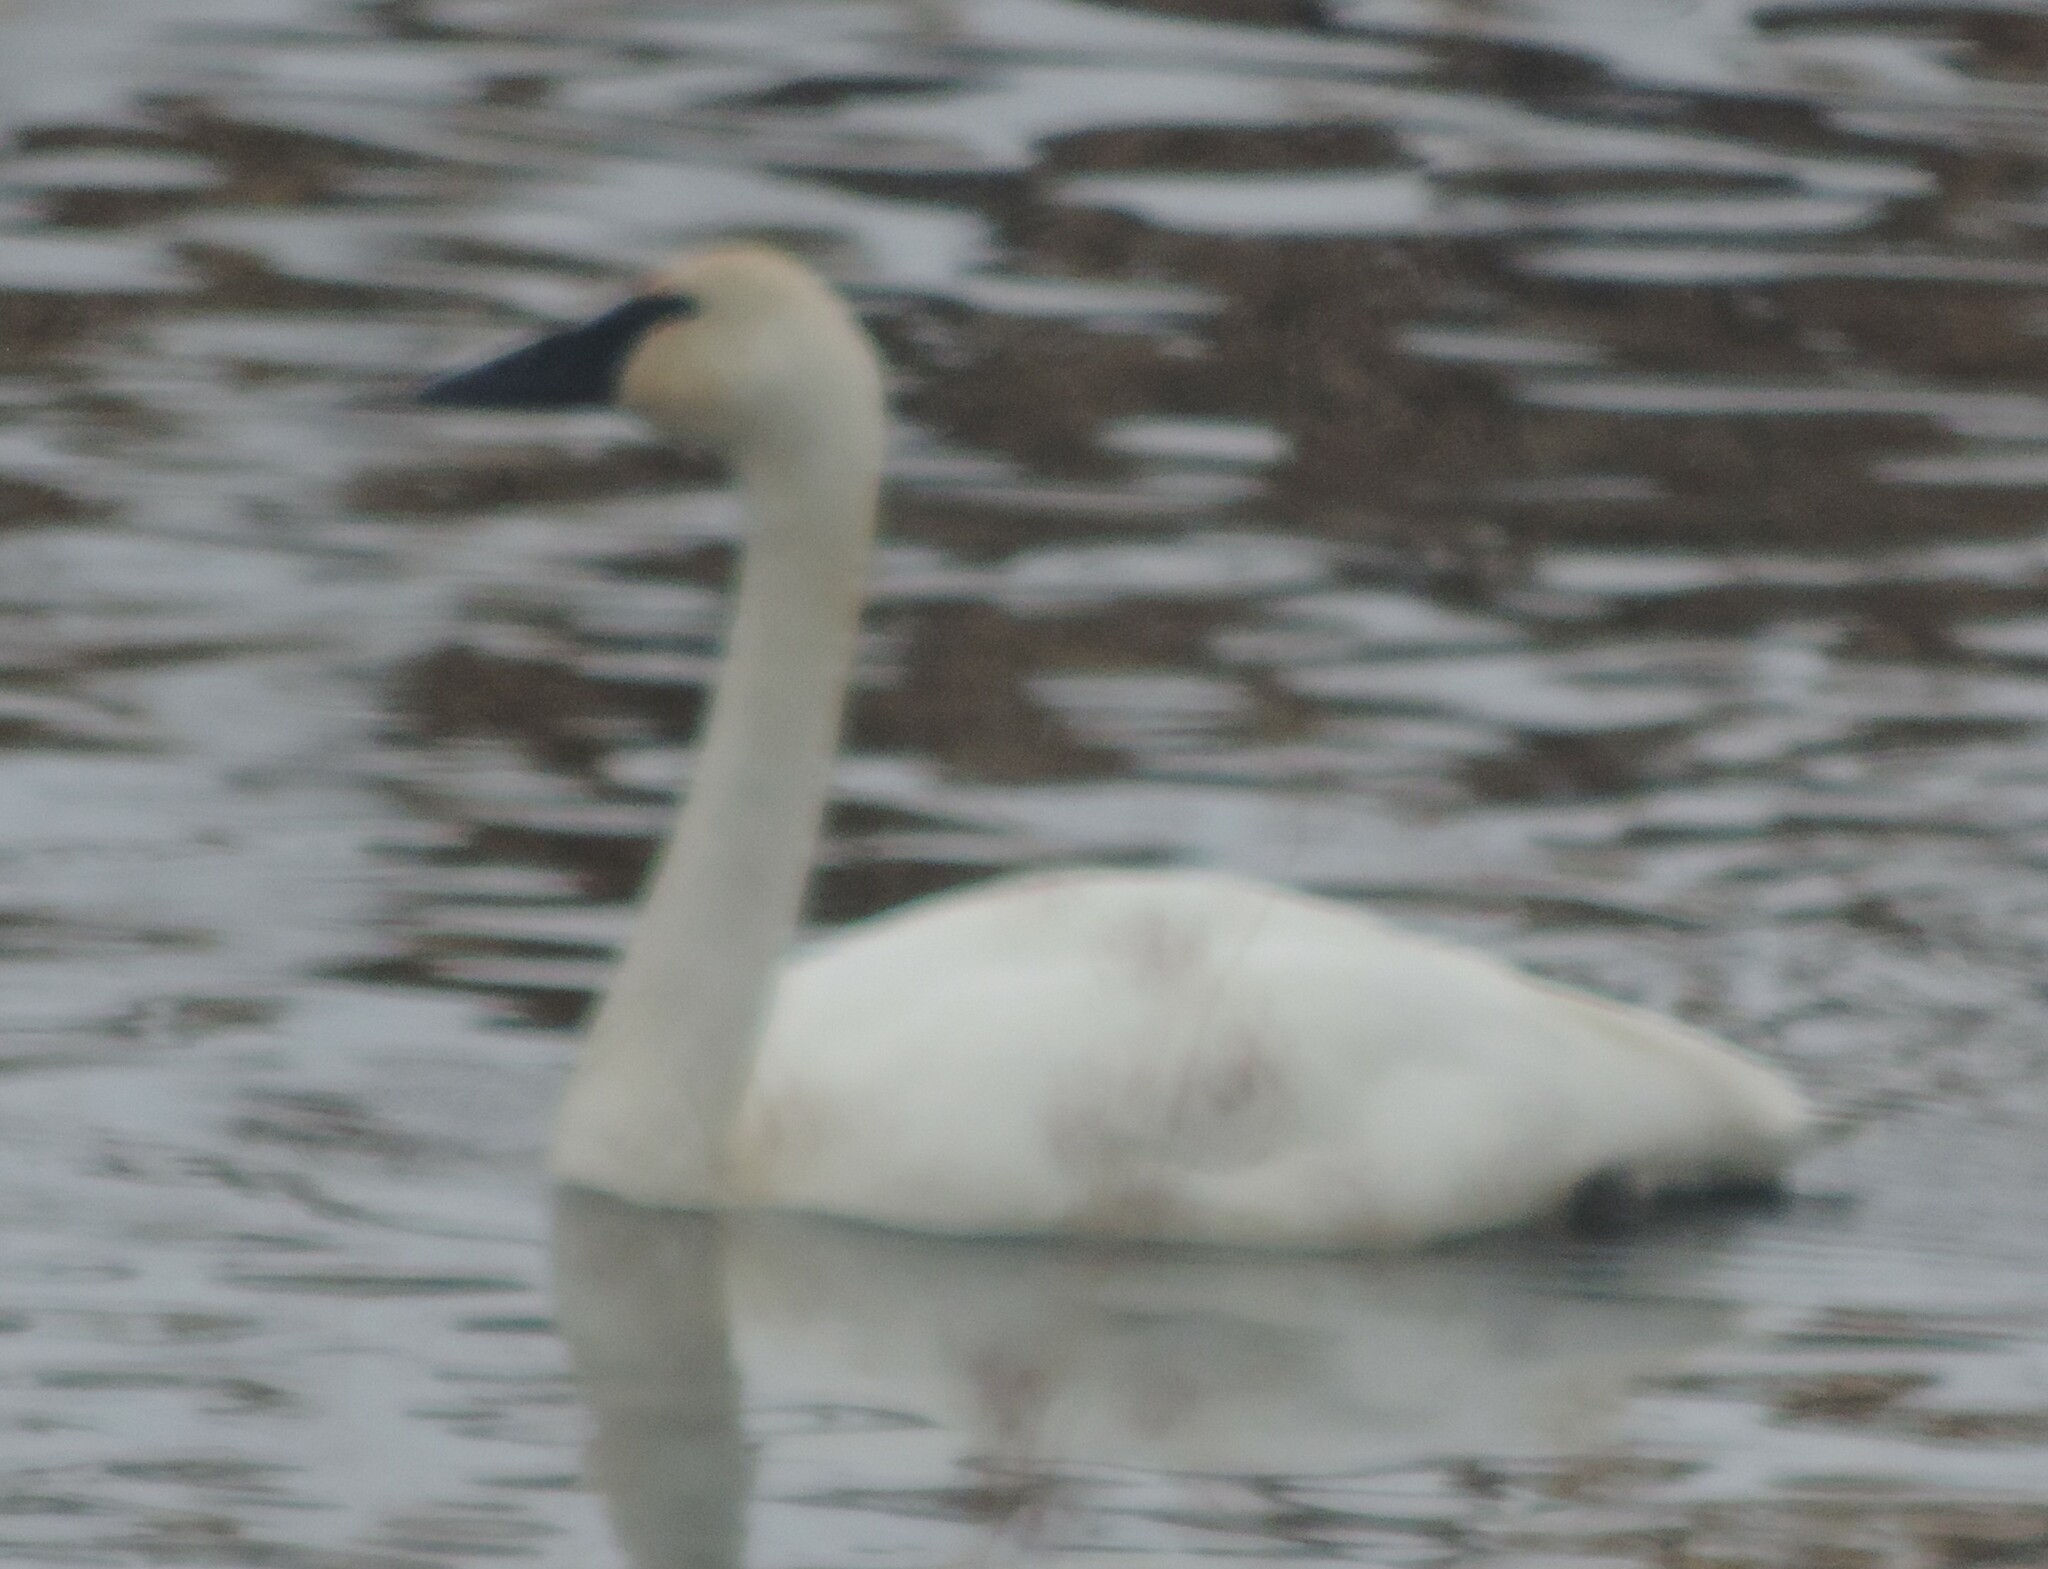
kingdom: Animalia
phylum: Chordata
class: Aves
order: Anseriformes
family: Anatidae
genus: Cygnus
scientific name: Cygnus buccinator
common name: Trumpeter swan
